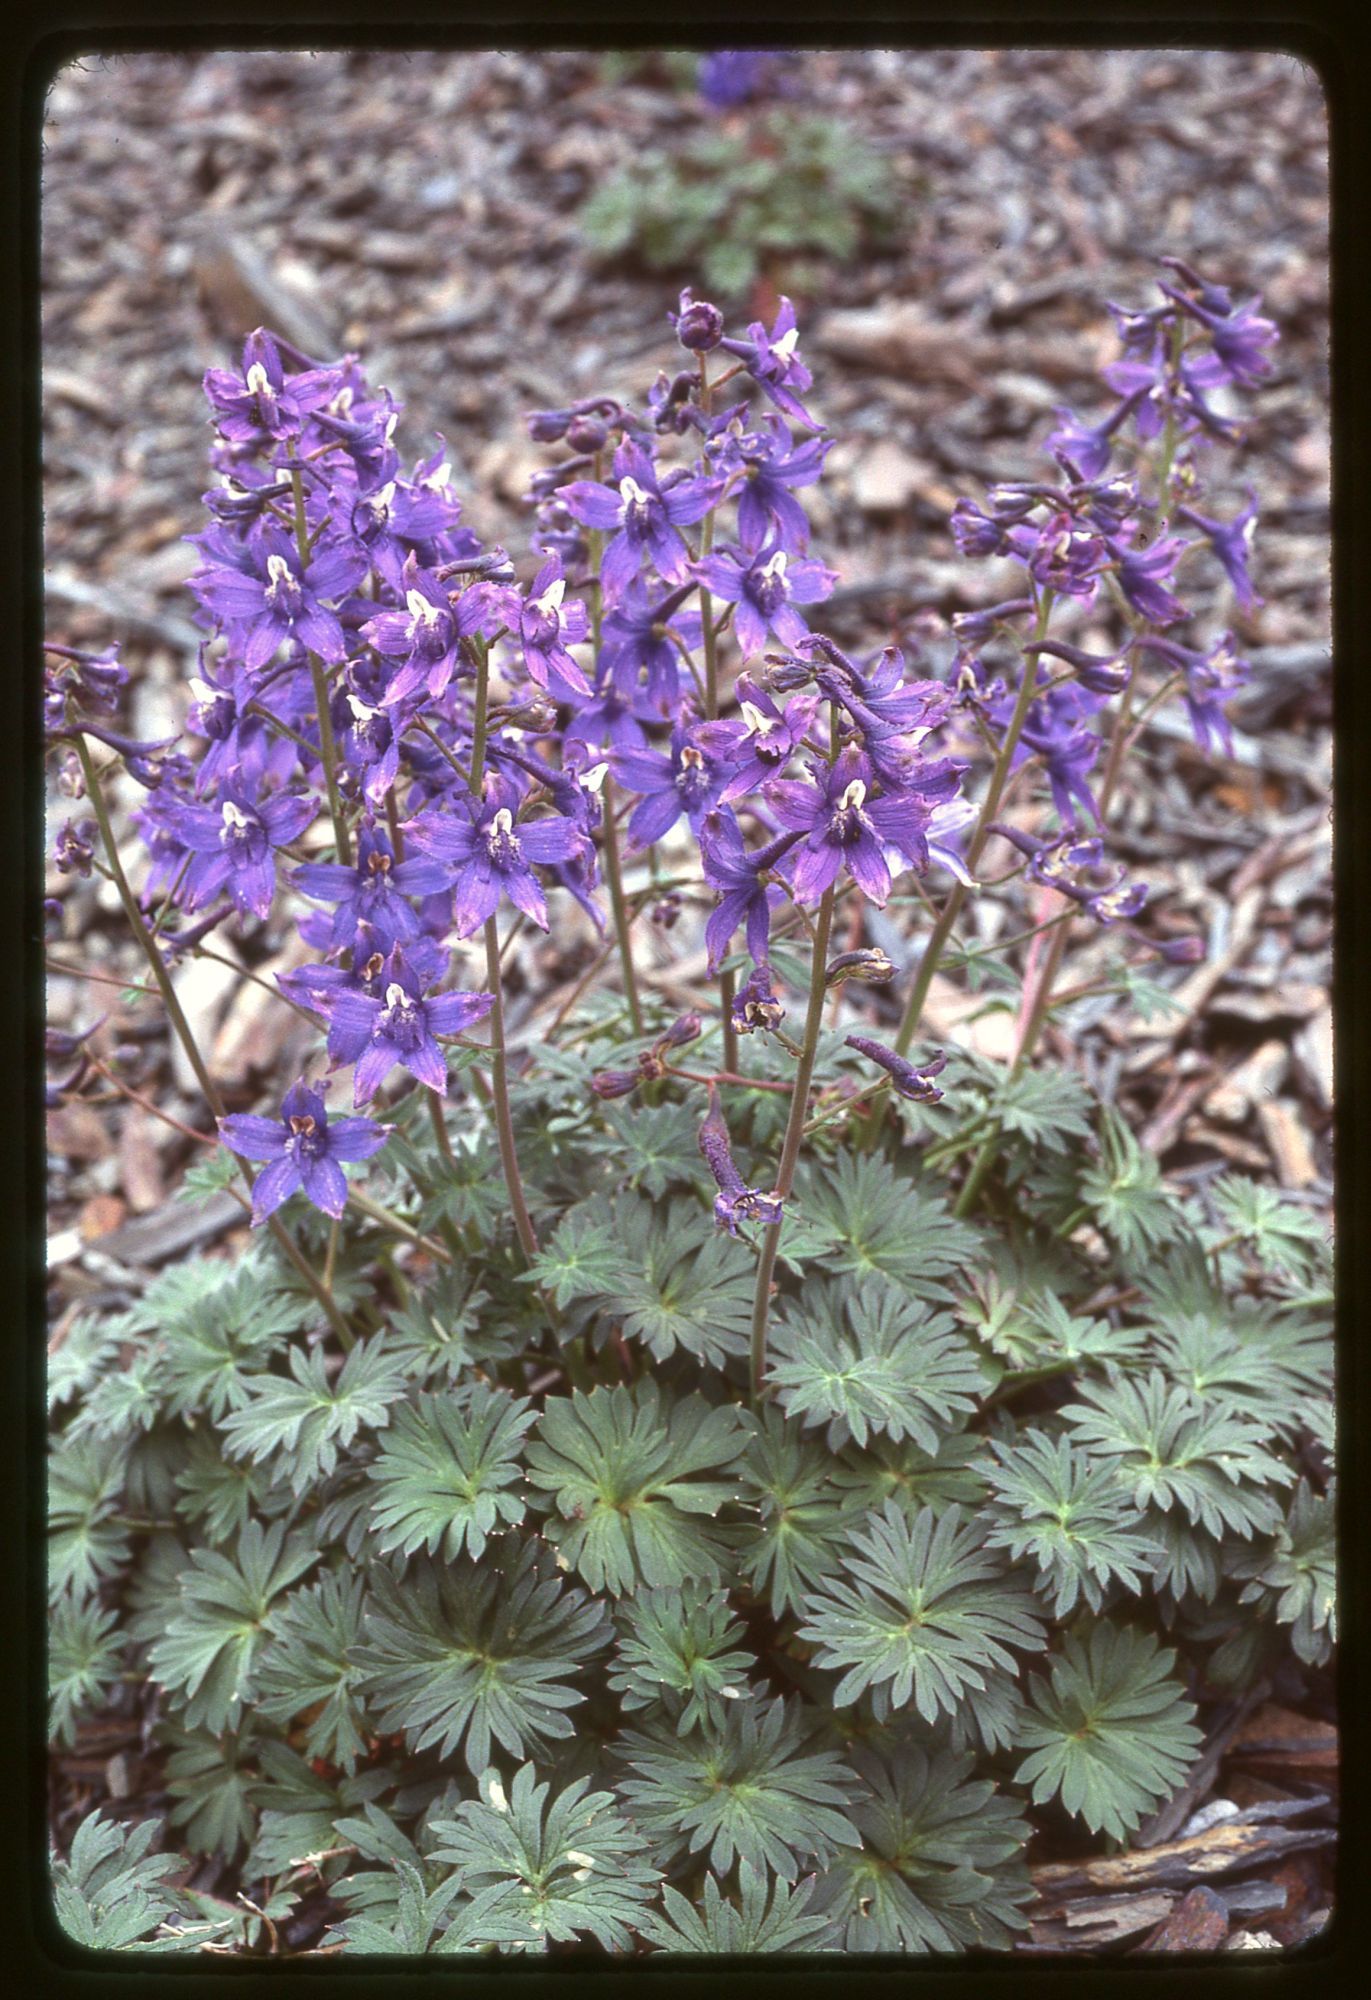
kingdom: Plantae
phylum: Tracheophyta
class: Magnoliopsida
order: Ranunculales
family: Ranunculaceae
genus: Delphinium
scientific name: Delphinium glareosum
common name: Olympic mountain larkspur
